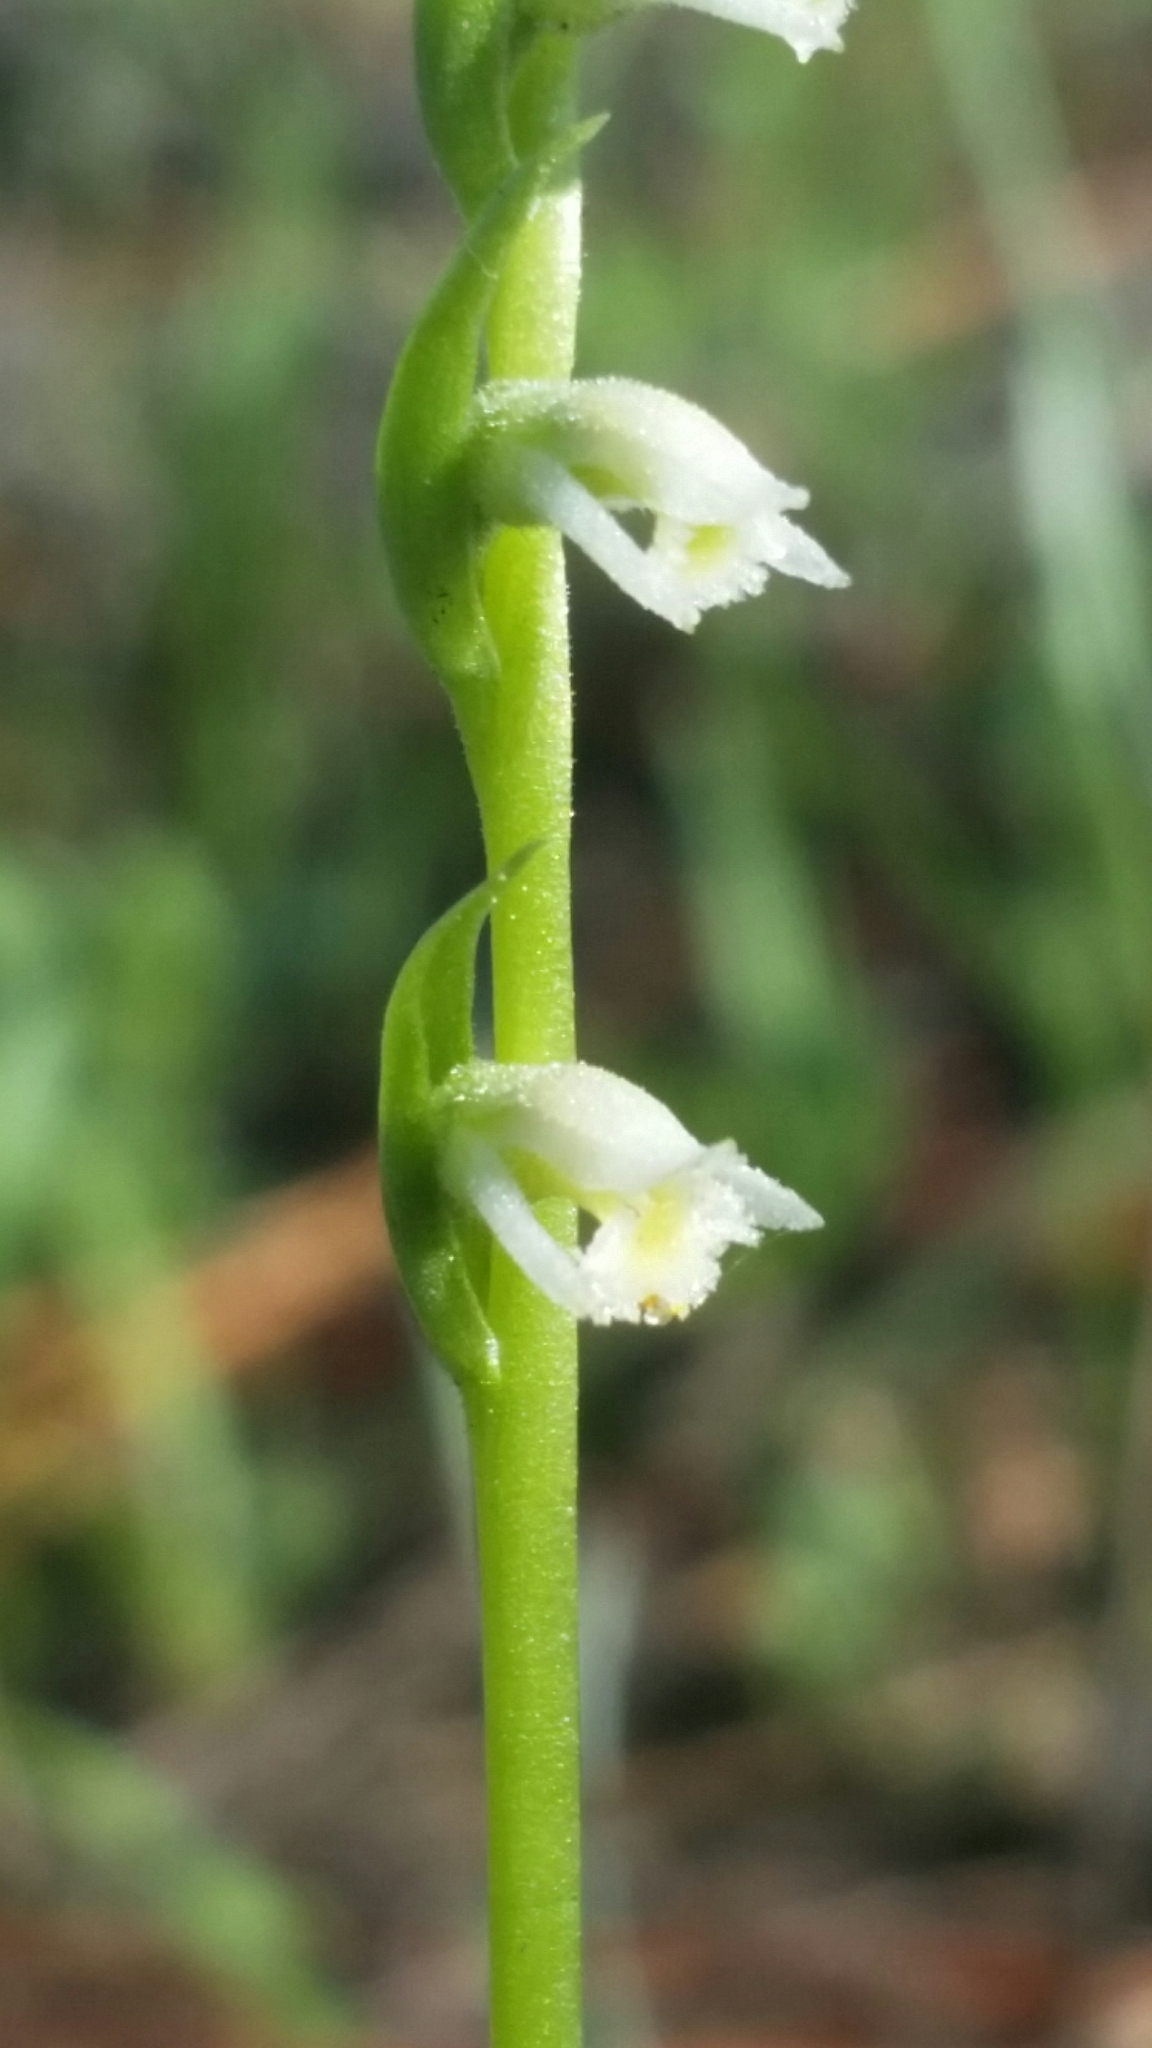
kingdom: Plantae
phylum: Tracheophyta
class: Liliopsida
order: Asparagales
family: Orchidaceae
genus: Spiranthes
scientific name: Spiranthes lacera
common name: Northern slender ladies'-tresses
